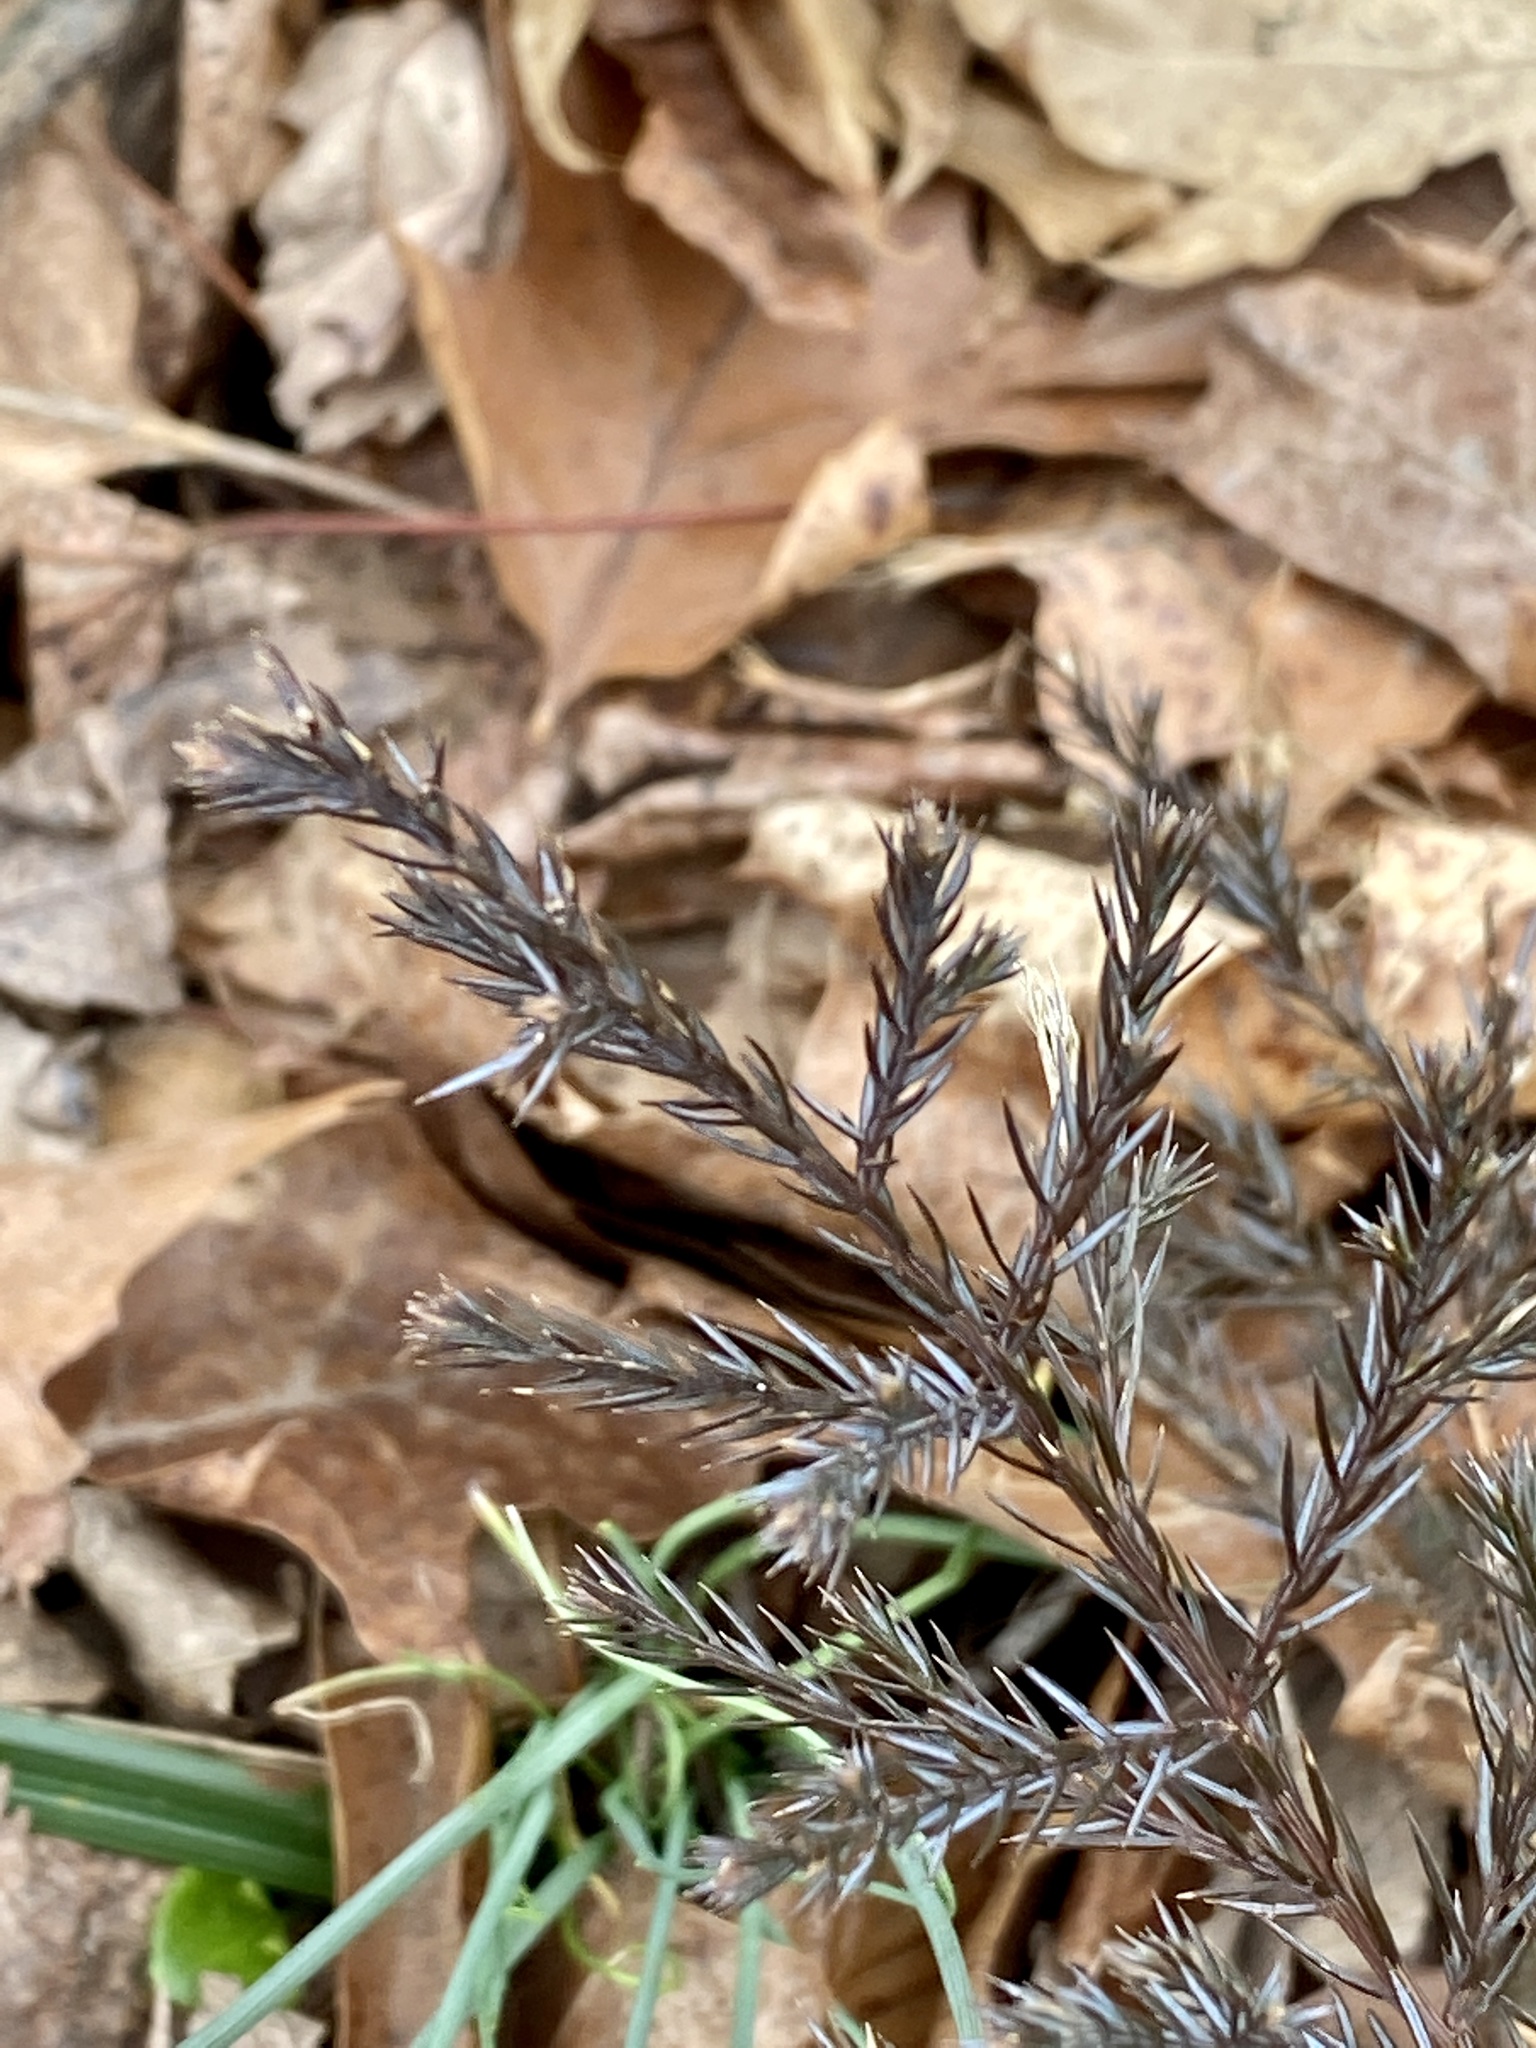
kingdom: Plantae
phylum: Tracheophyta
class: Pinopsida
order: Pinales
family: Cupressaceae
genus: Juniperus
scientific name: Juniperus virginiana
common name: Red juniper
